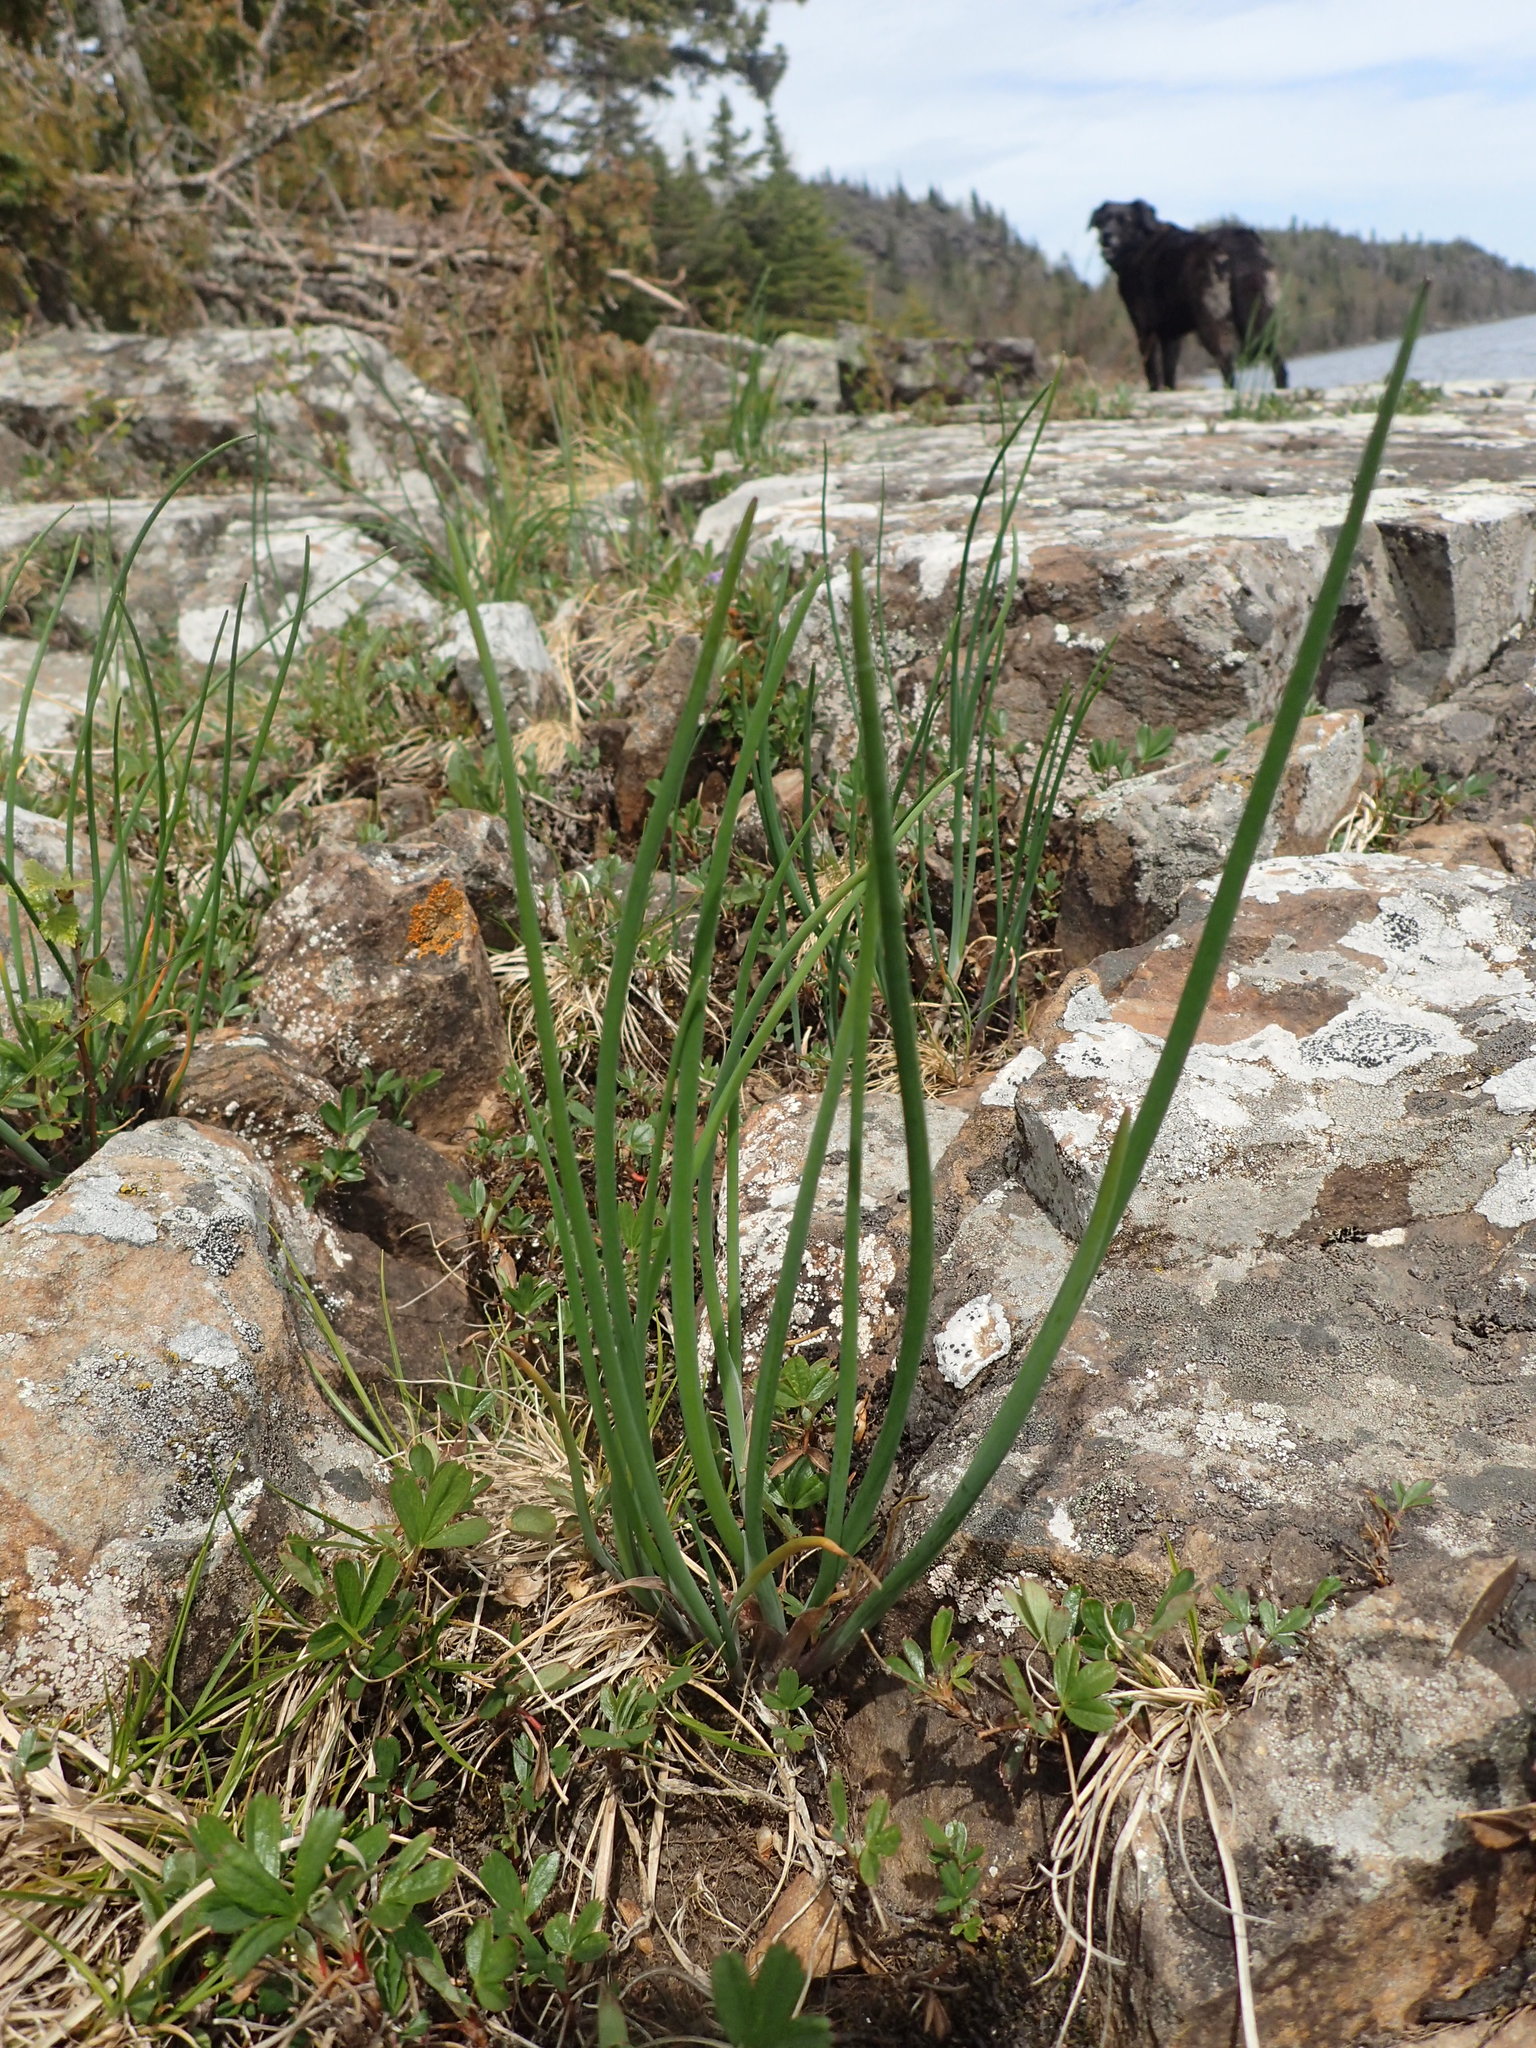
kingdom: Plantae
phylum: Tracheophyta
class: Liliopsida
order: Asparagales
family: Amaryllidaceae
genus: Allium
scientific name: Allium schoenoprasum
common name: Chives
